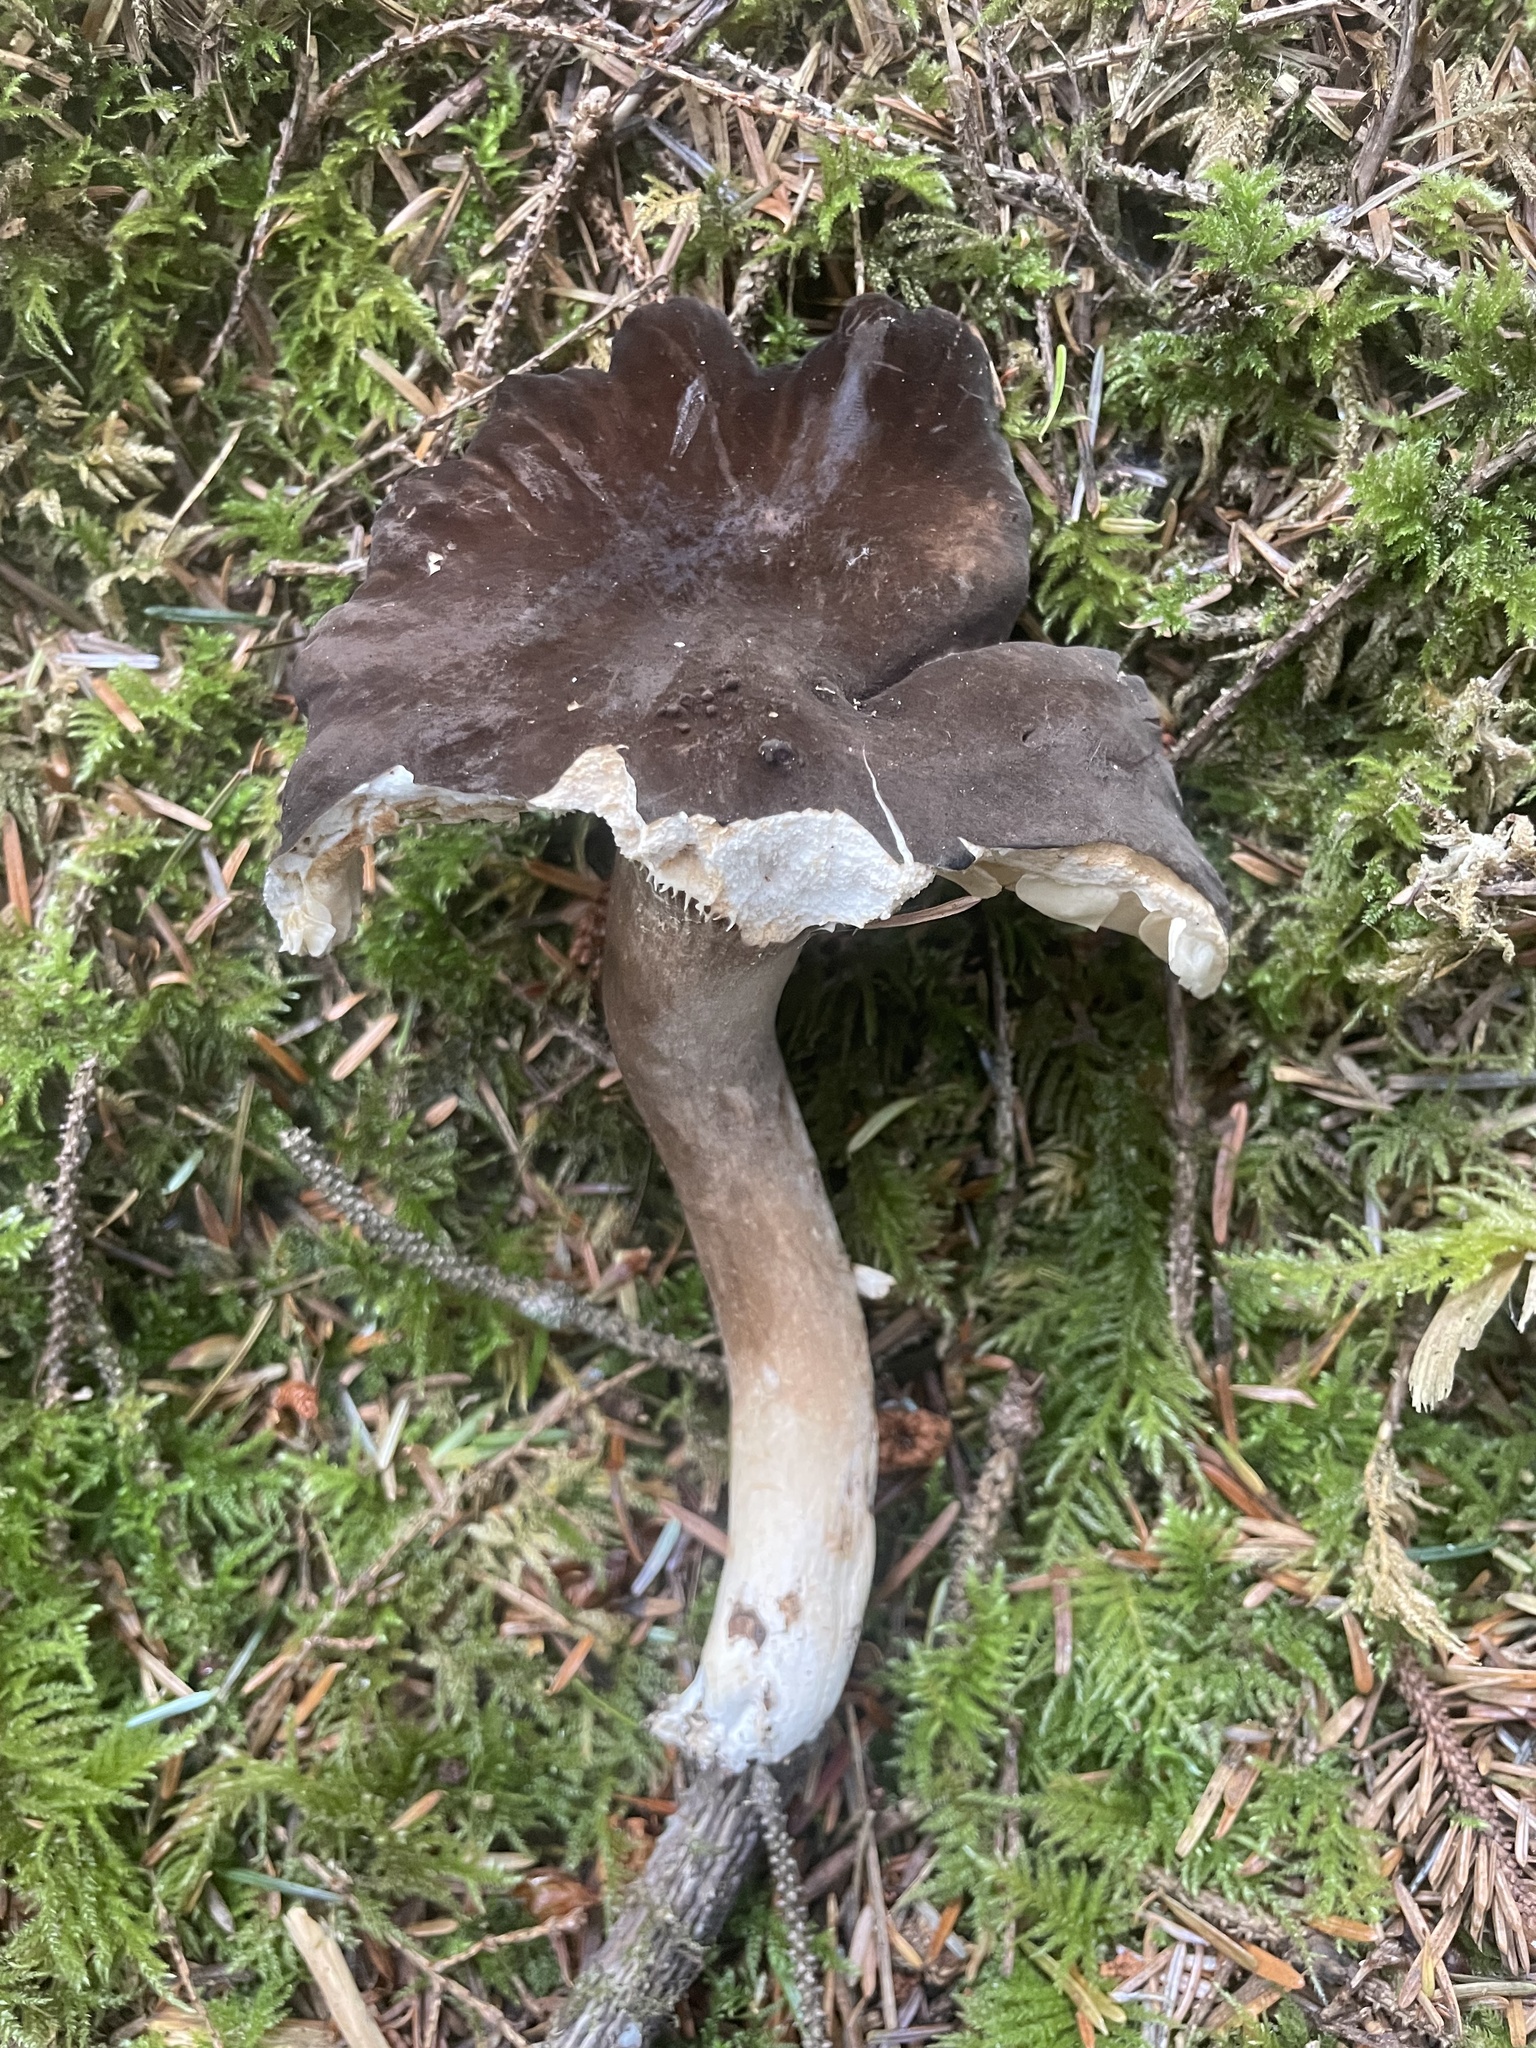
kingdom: Fungi
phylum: Basidiomycota
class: Agaricomycetes
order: Russulales
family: Russulaceae
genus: Lactarius
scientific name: Lactarius fallax
